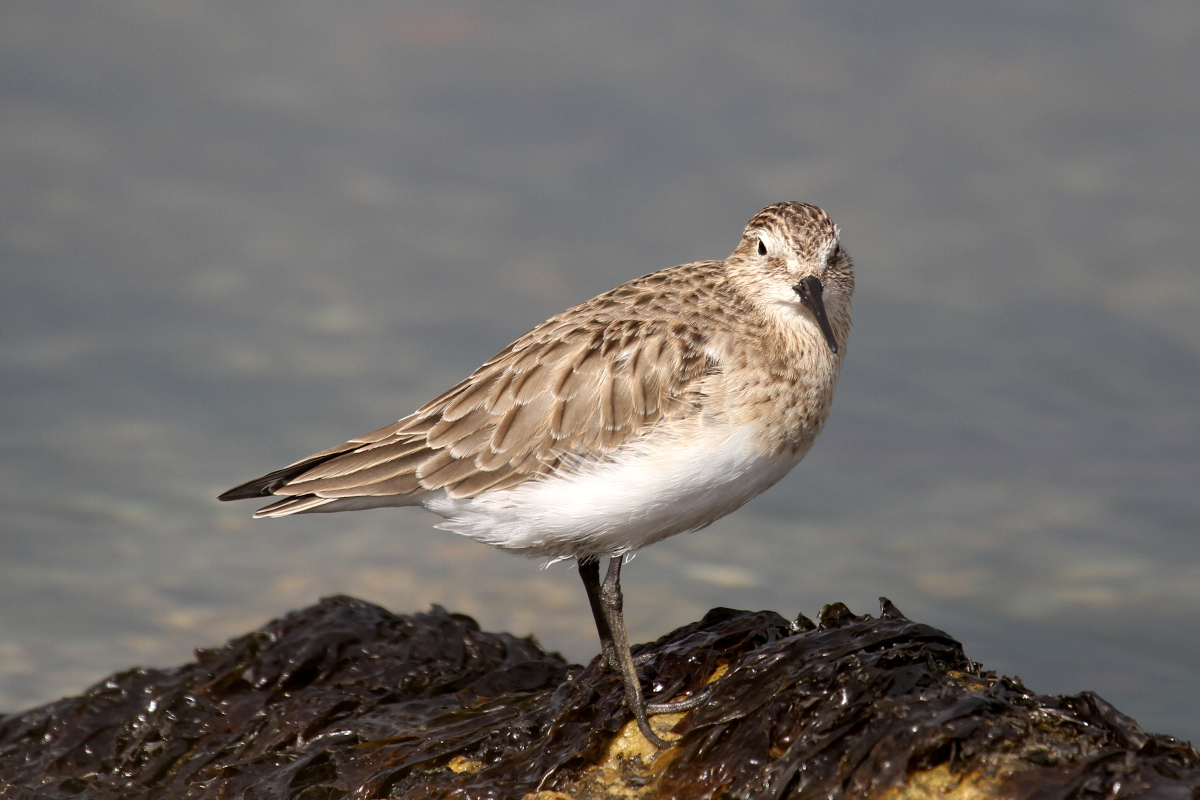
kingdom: Animalia
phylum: Chordata
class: Aves
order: Charadriiformes
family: Scolopacidae
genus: Calidris
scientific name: Calidris bairdii
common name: Baird's sandpiper
